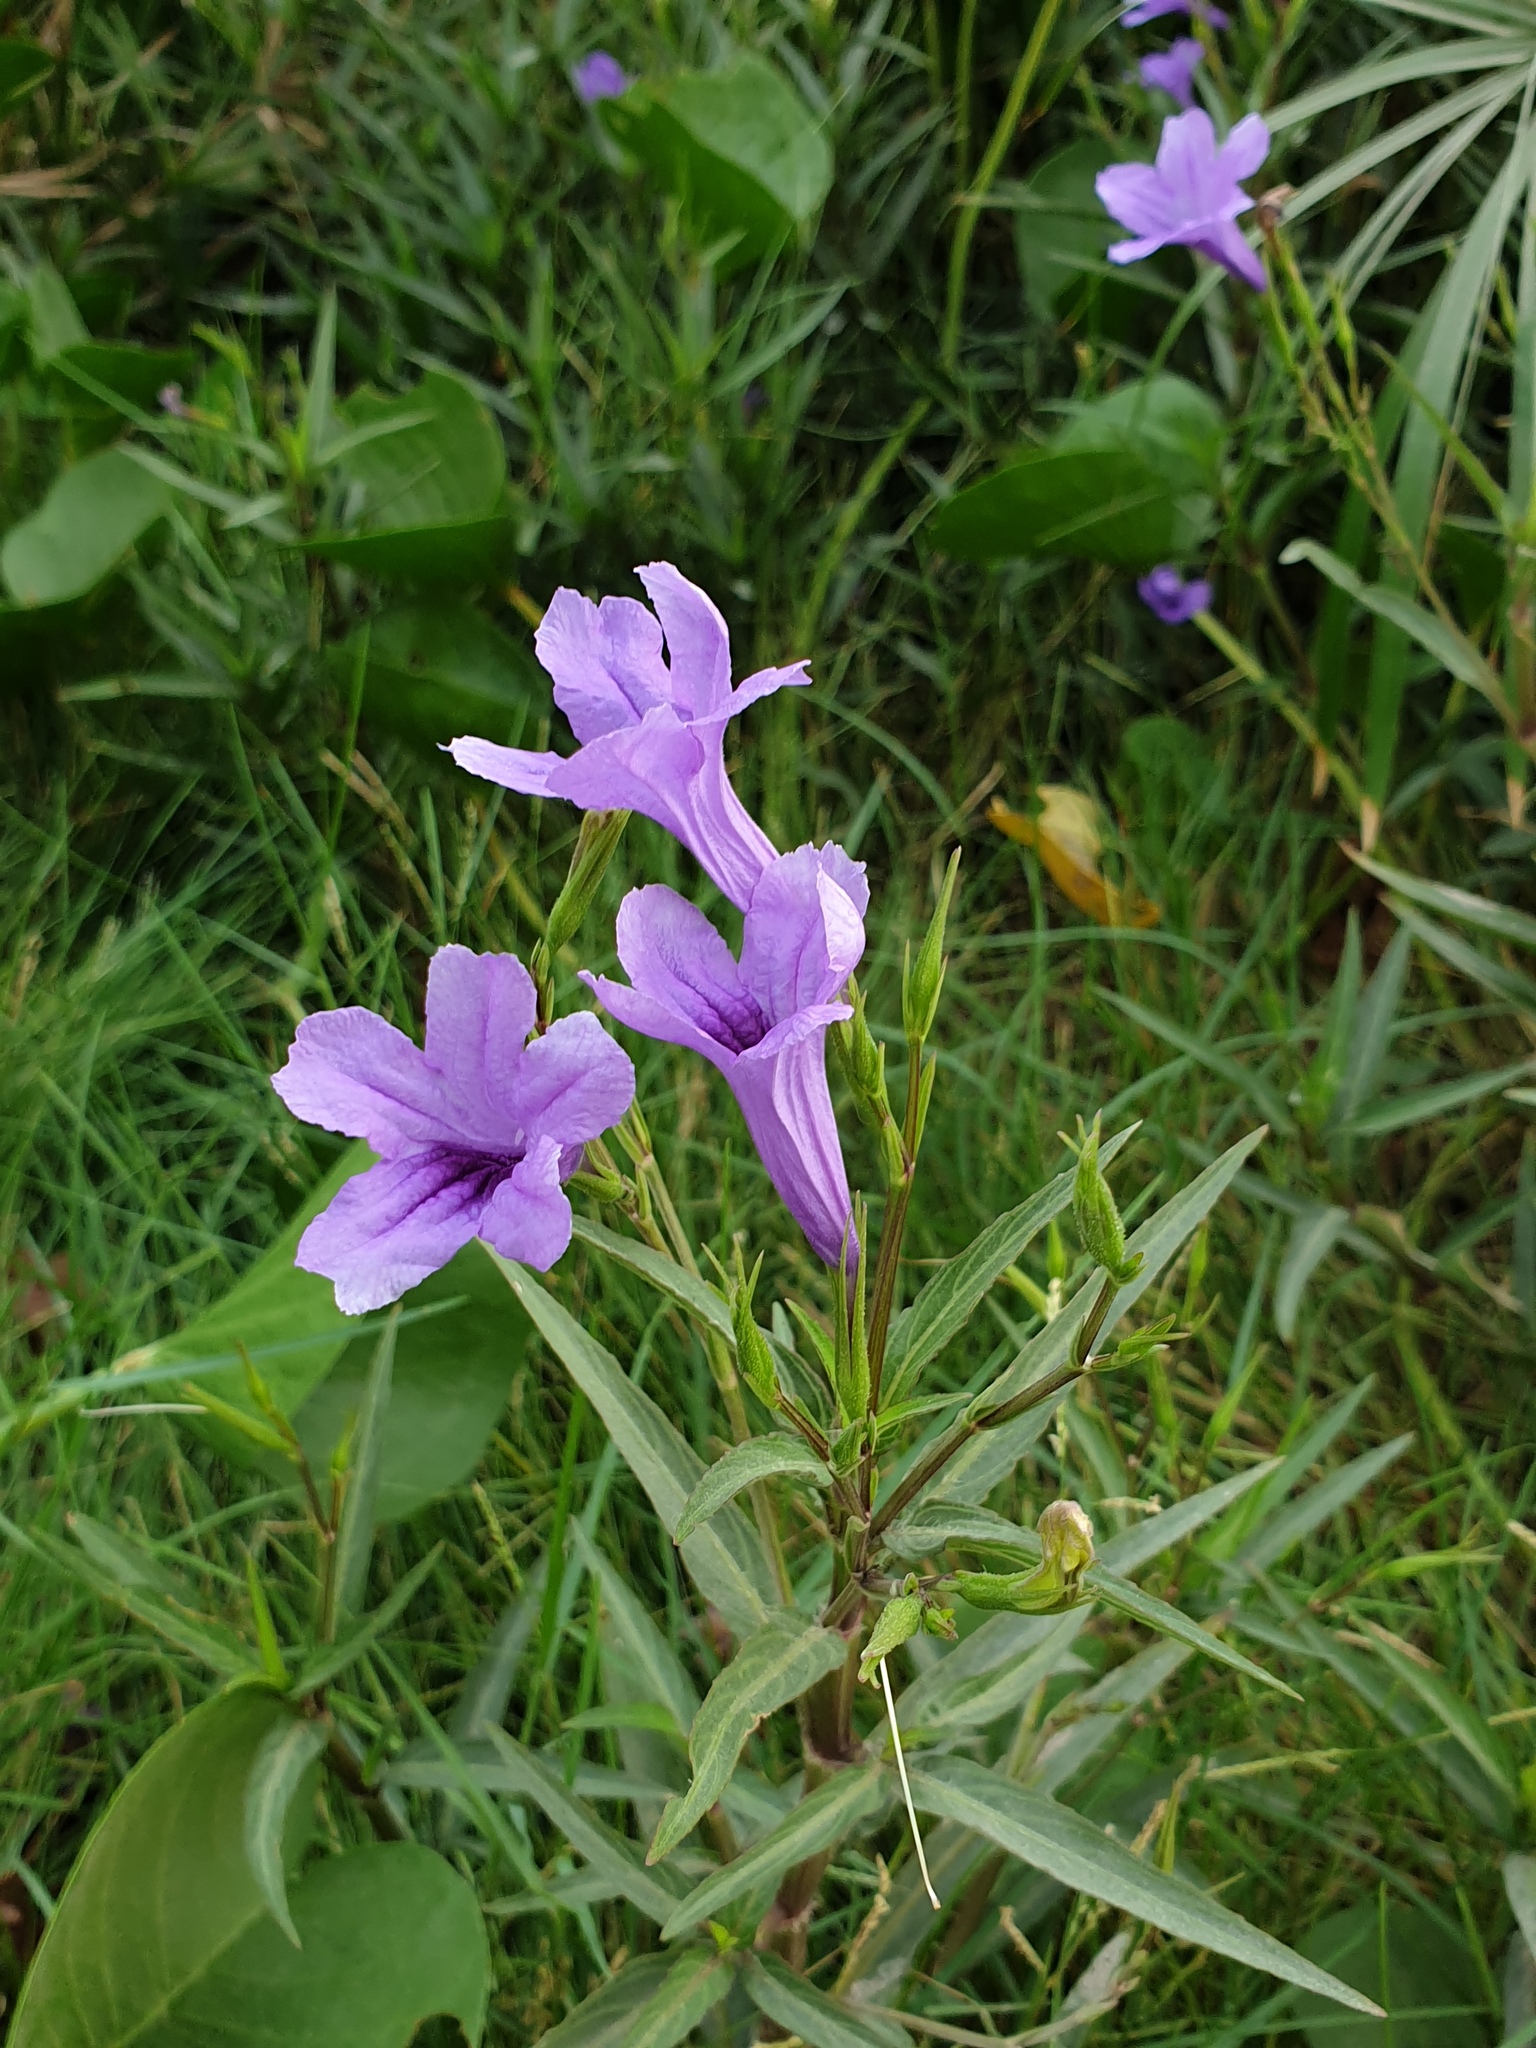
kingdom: Plantae
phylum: Tracheophyta
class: Magnoliopsida
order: Lamiales
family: Acanthaceae
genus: Ruellia
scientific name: Ruellia simplex
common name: Softseed wild petunia
